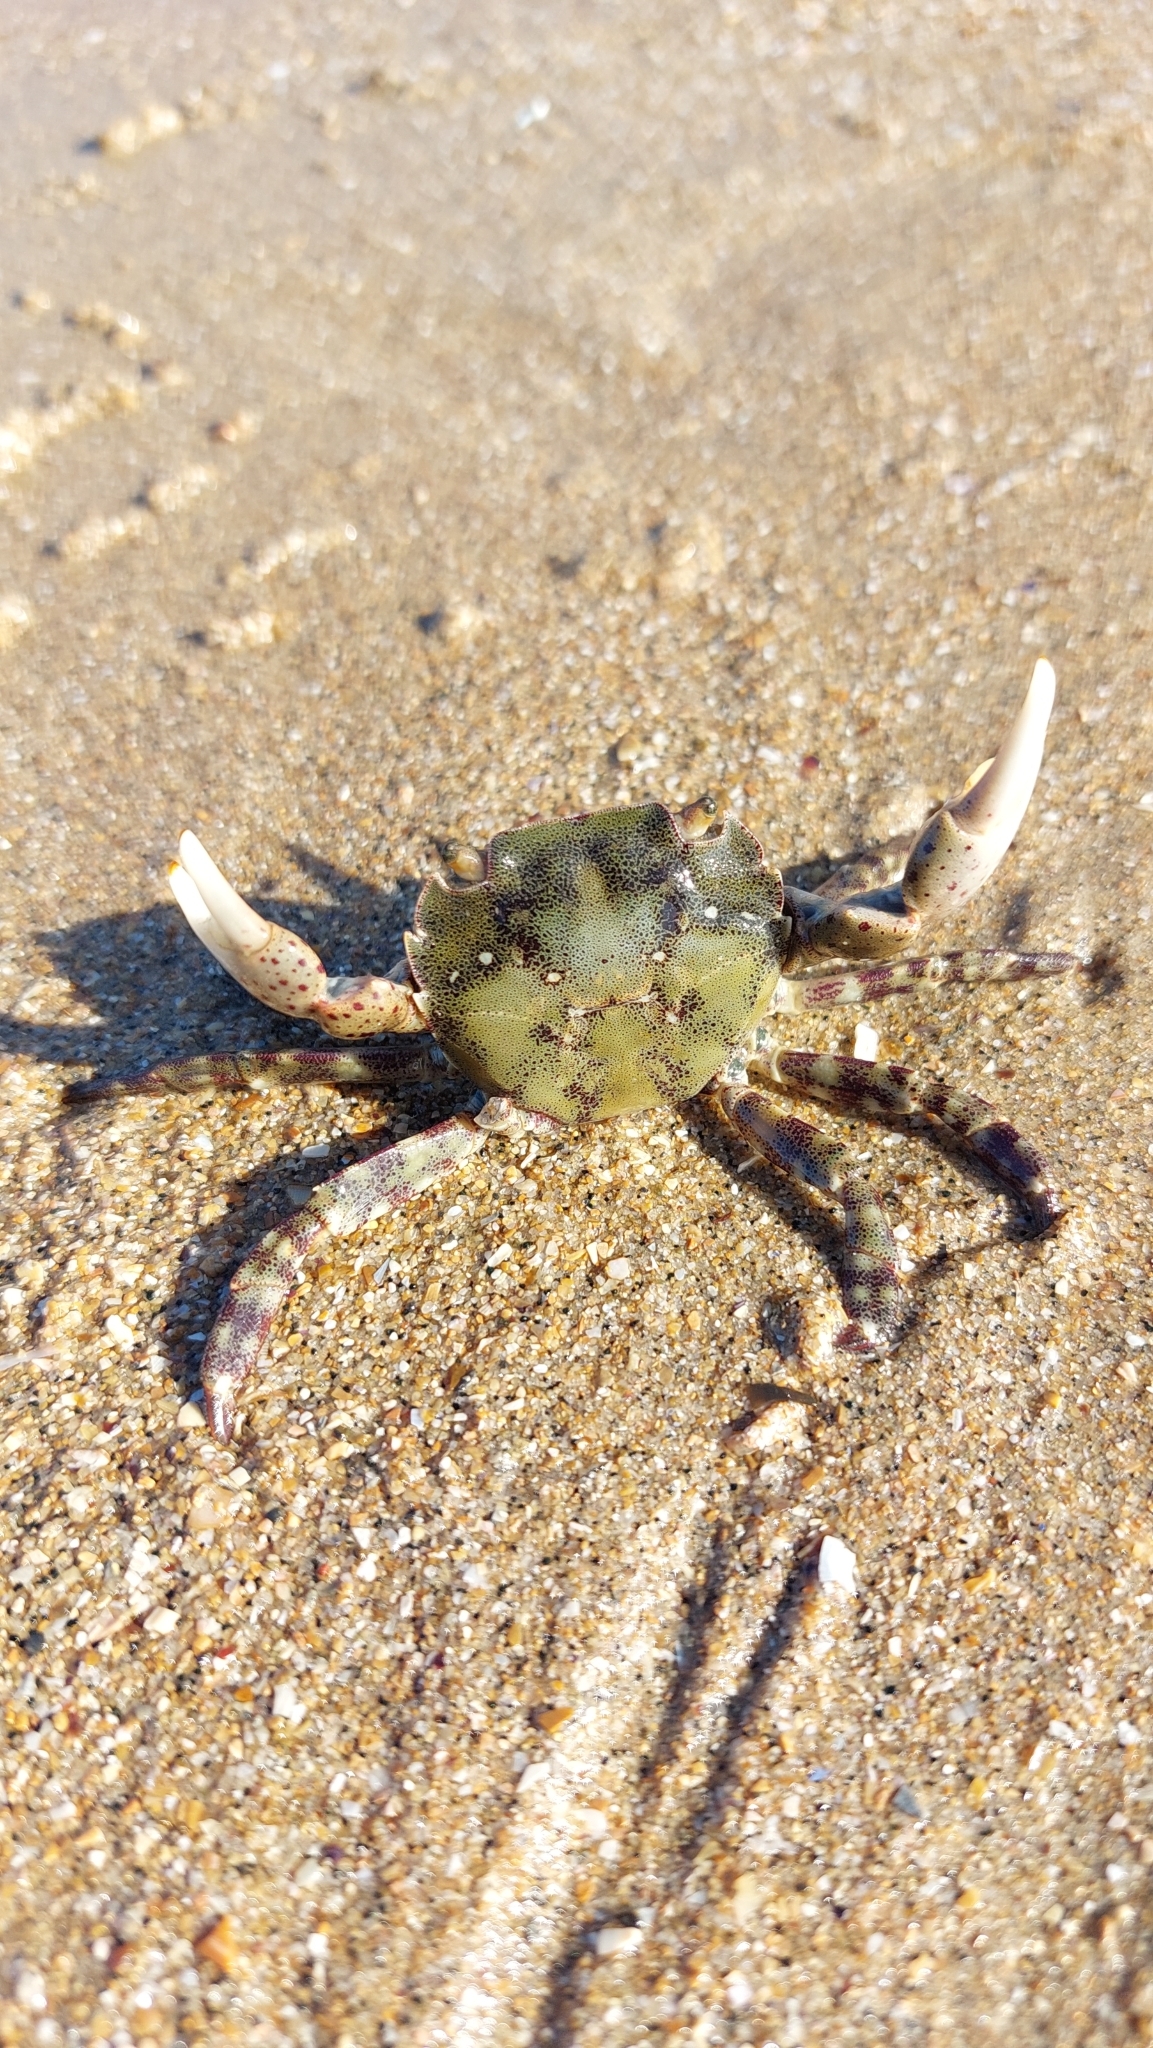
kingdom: Animalia
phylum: Arthropoda
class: Malacostraca
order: Decapoda
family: Varunidae
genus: Hemigrapsus
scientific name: Hemigrapsus sanguineus
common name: Asian shore crab
